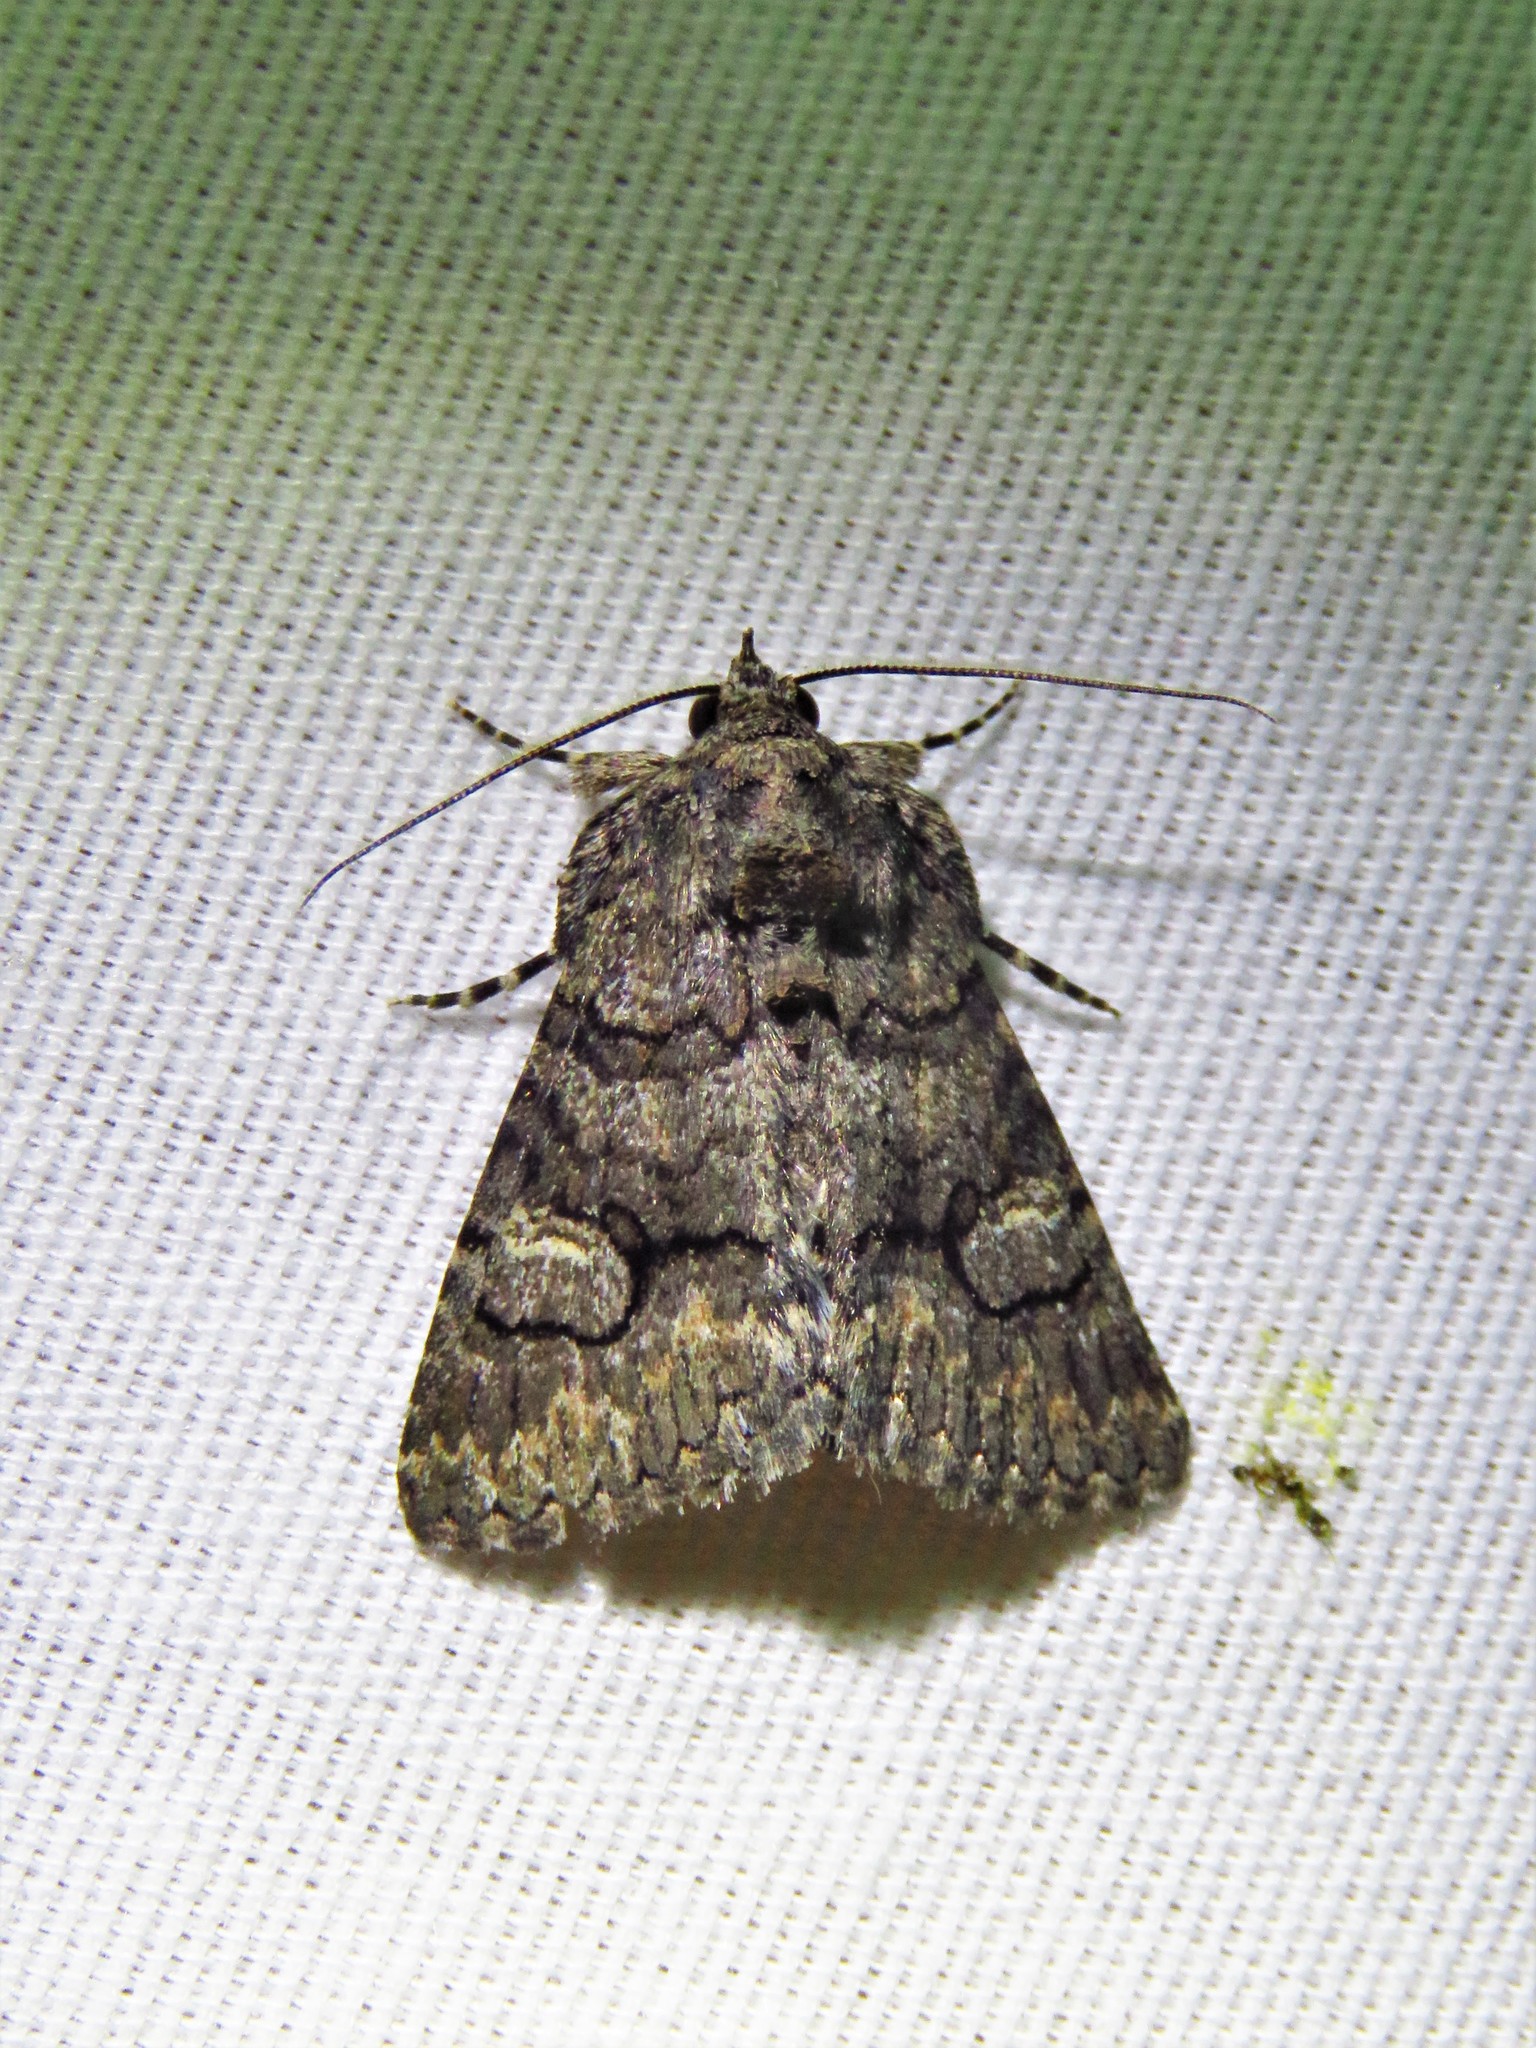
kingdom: Animalia
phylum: Arthropoda
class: Insecta
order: Lepidoptera
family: Erebidae
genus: Elousa
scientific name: Elousa mima
